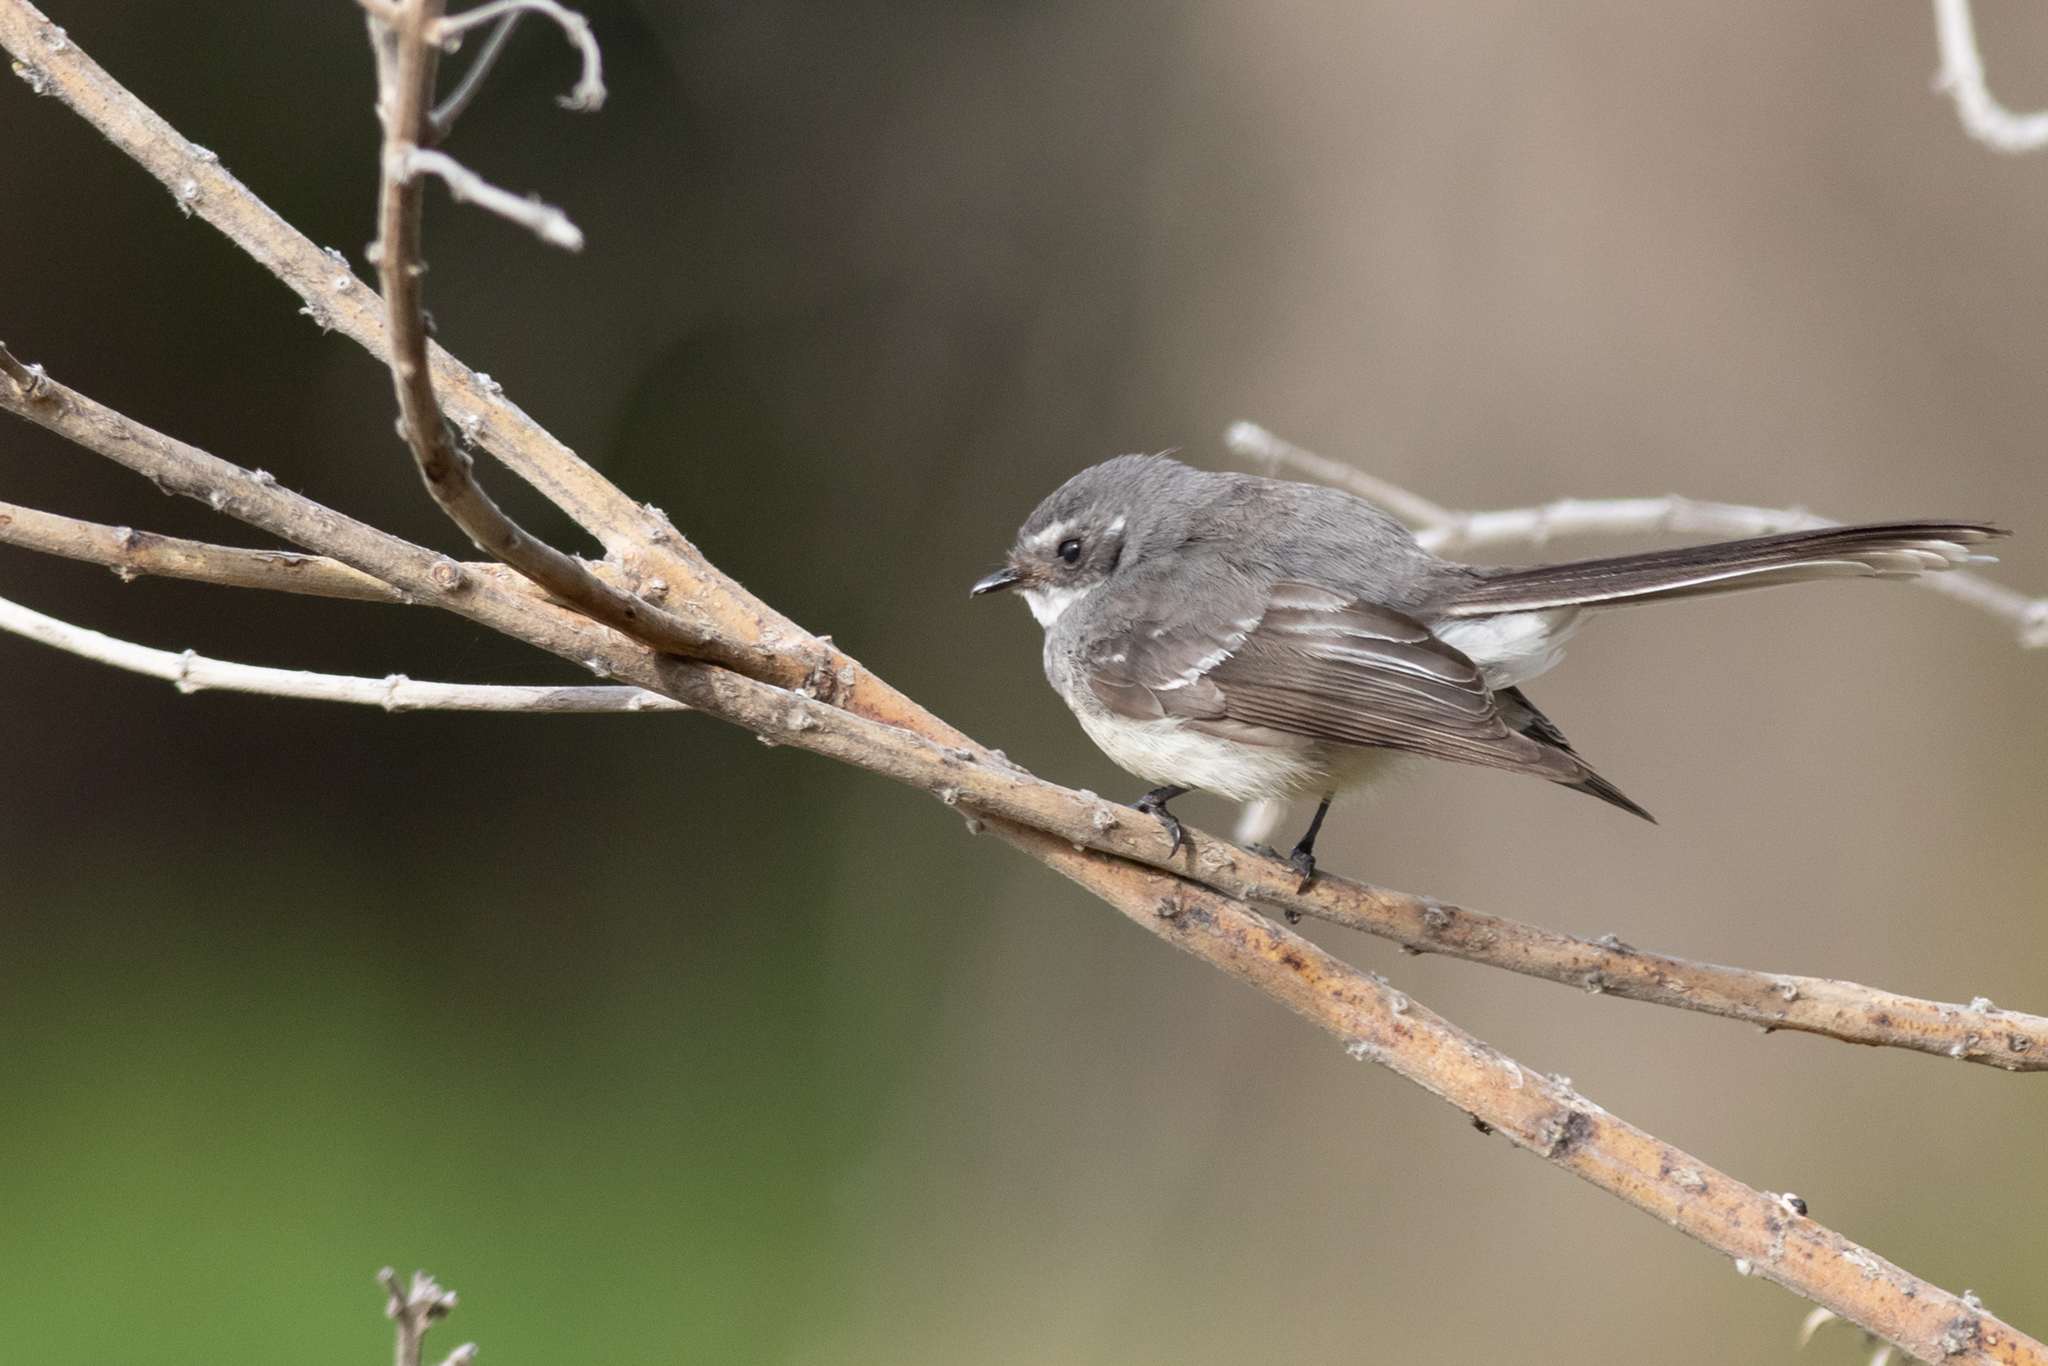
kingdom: Animalia
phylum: Chordata
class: Aves
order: Passeriformes
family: Rhipiduridae
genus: Rhipidura
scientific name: Rhipidura albiscapa
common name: Grey fantail
